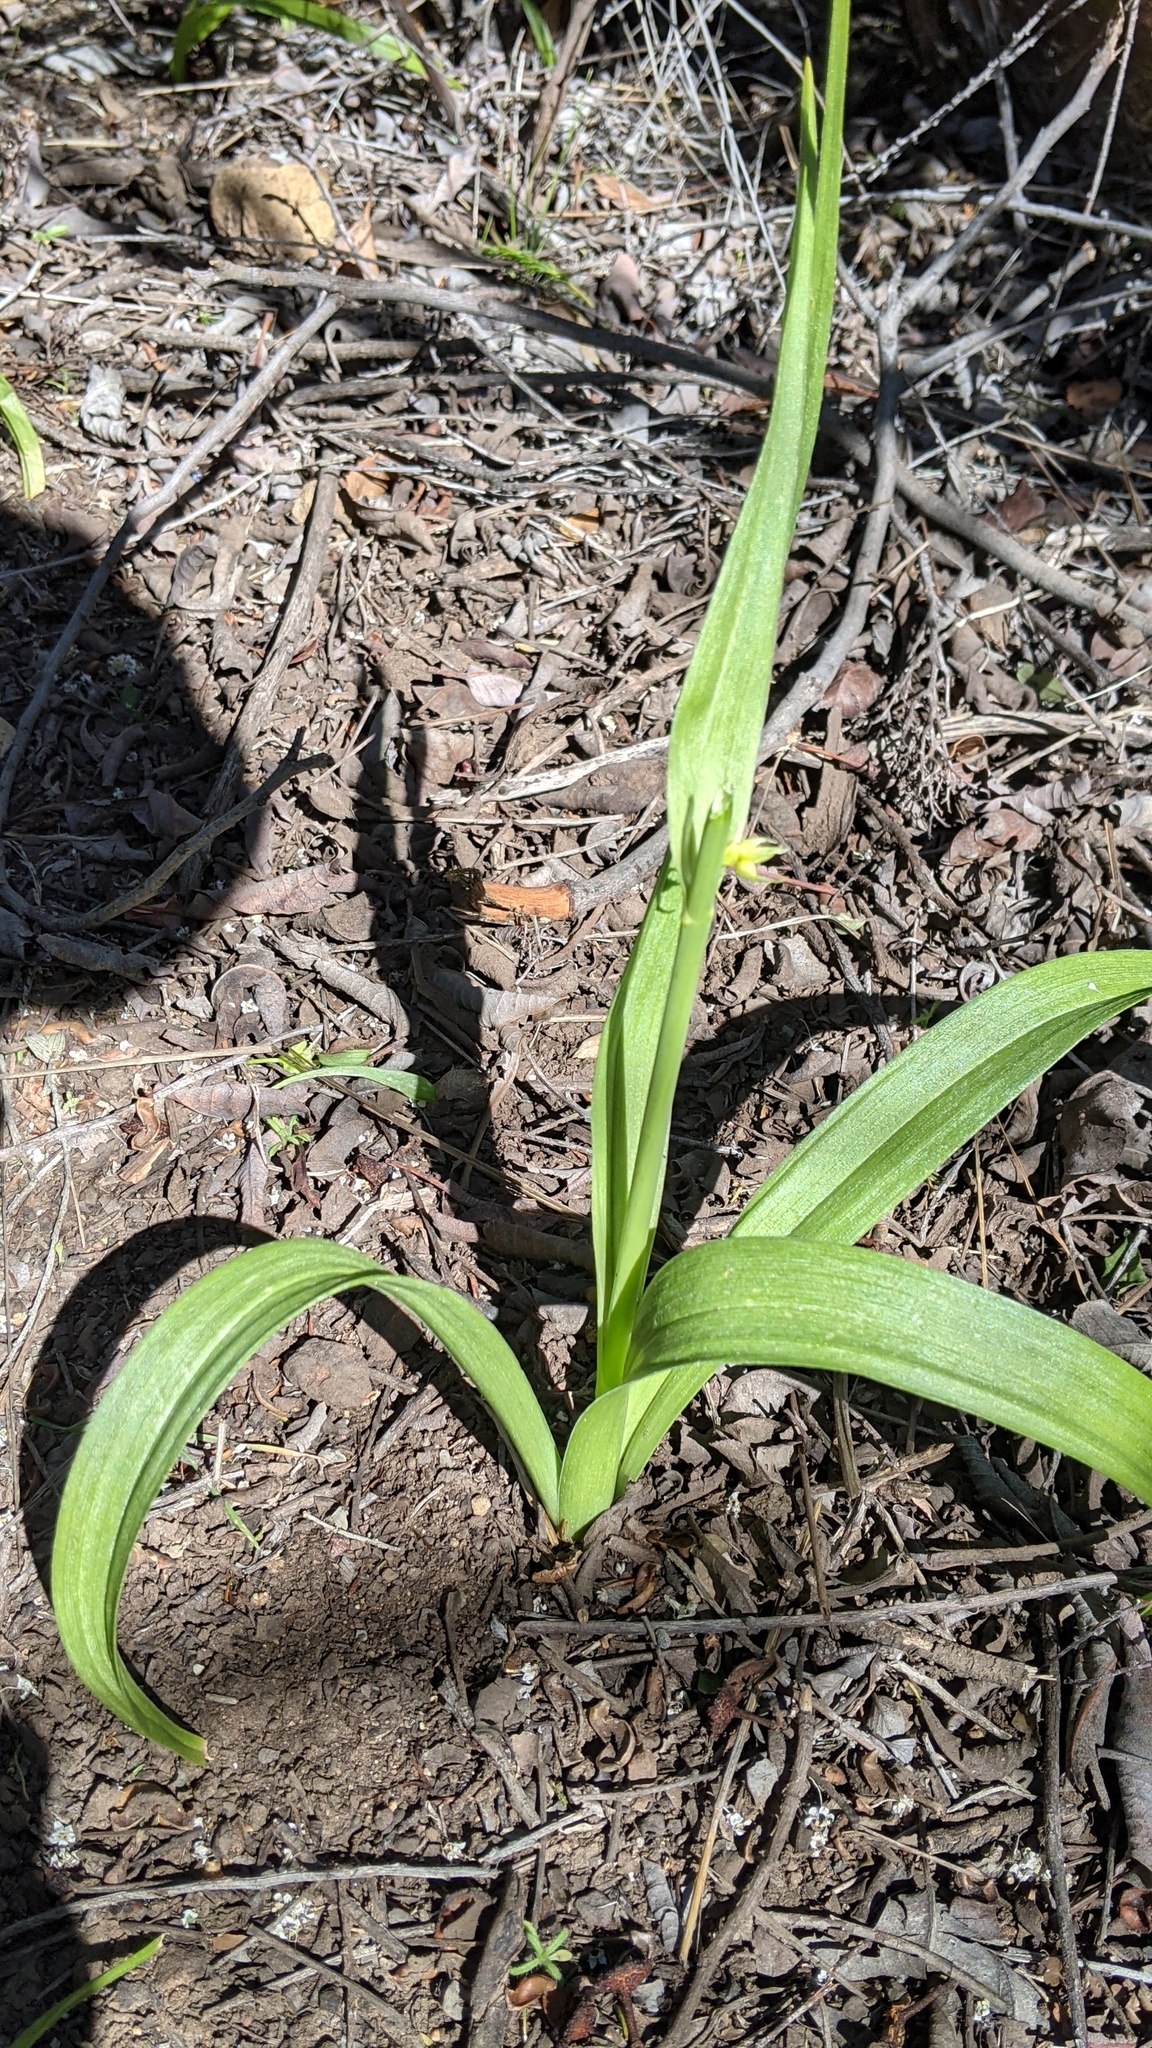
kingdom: Plantae
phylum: Tracheophyta
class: Liliopsida
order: Liliales
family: Melanthiaceae
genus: Toxicoscordion
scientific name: Toxicoscordion fremontii
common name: Fremont's death camas
